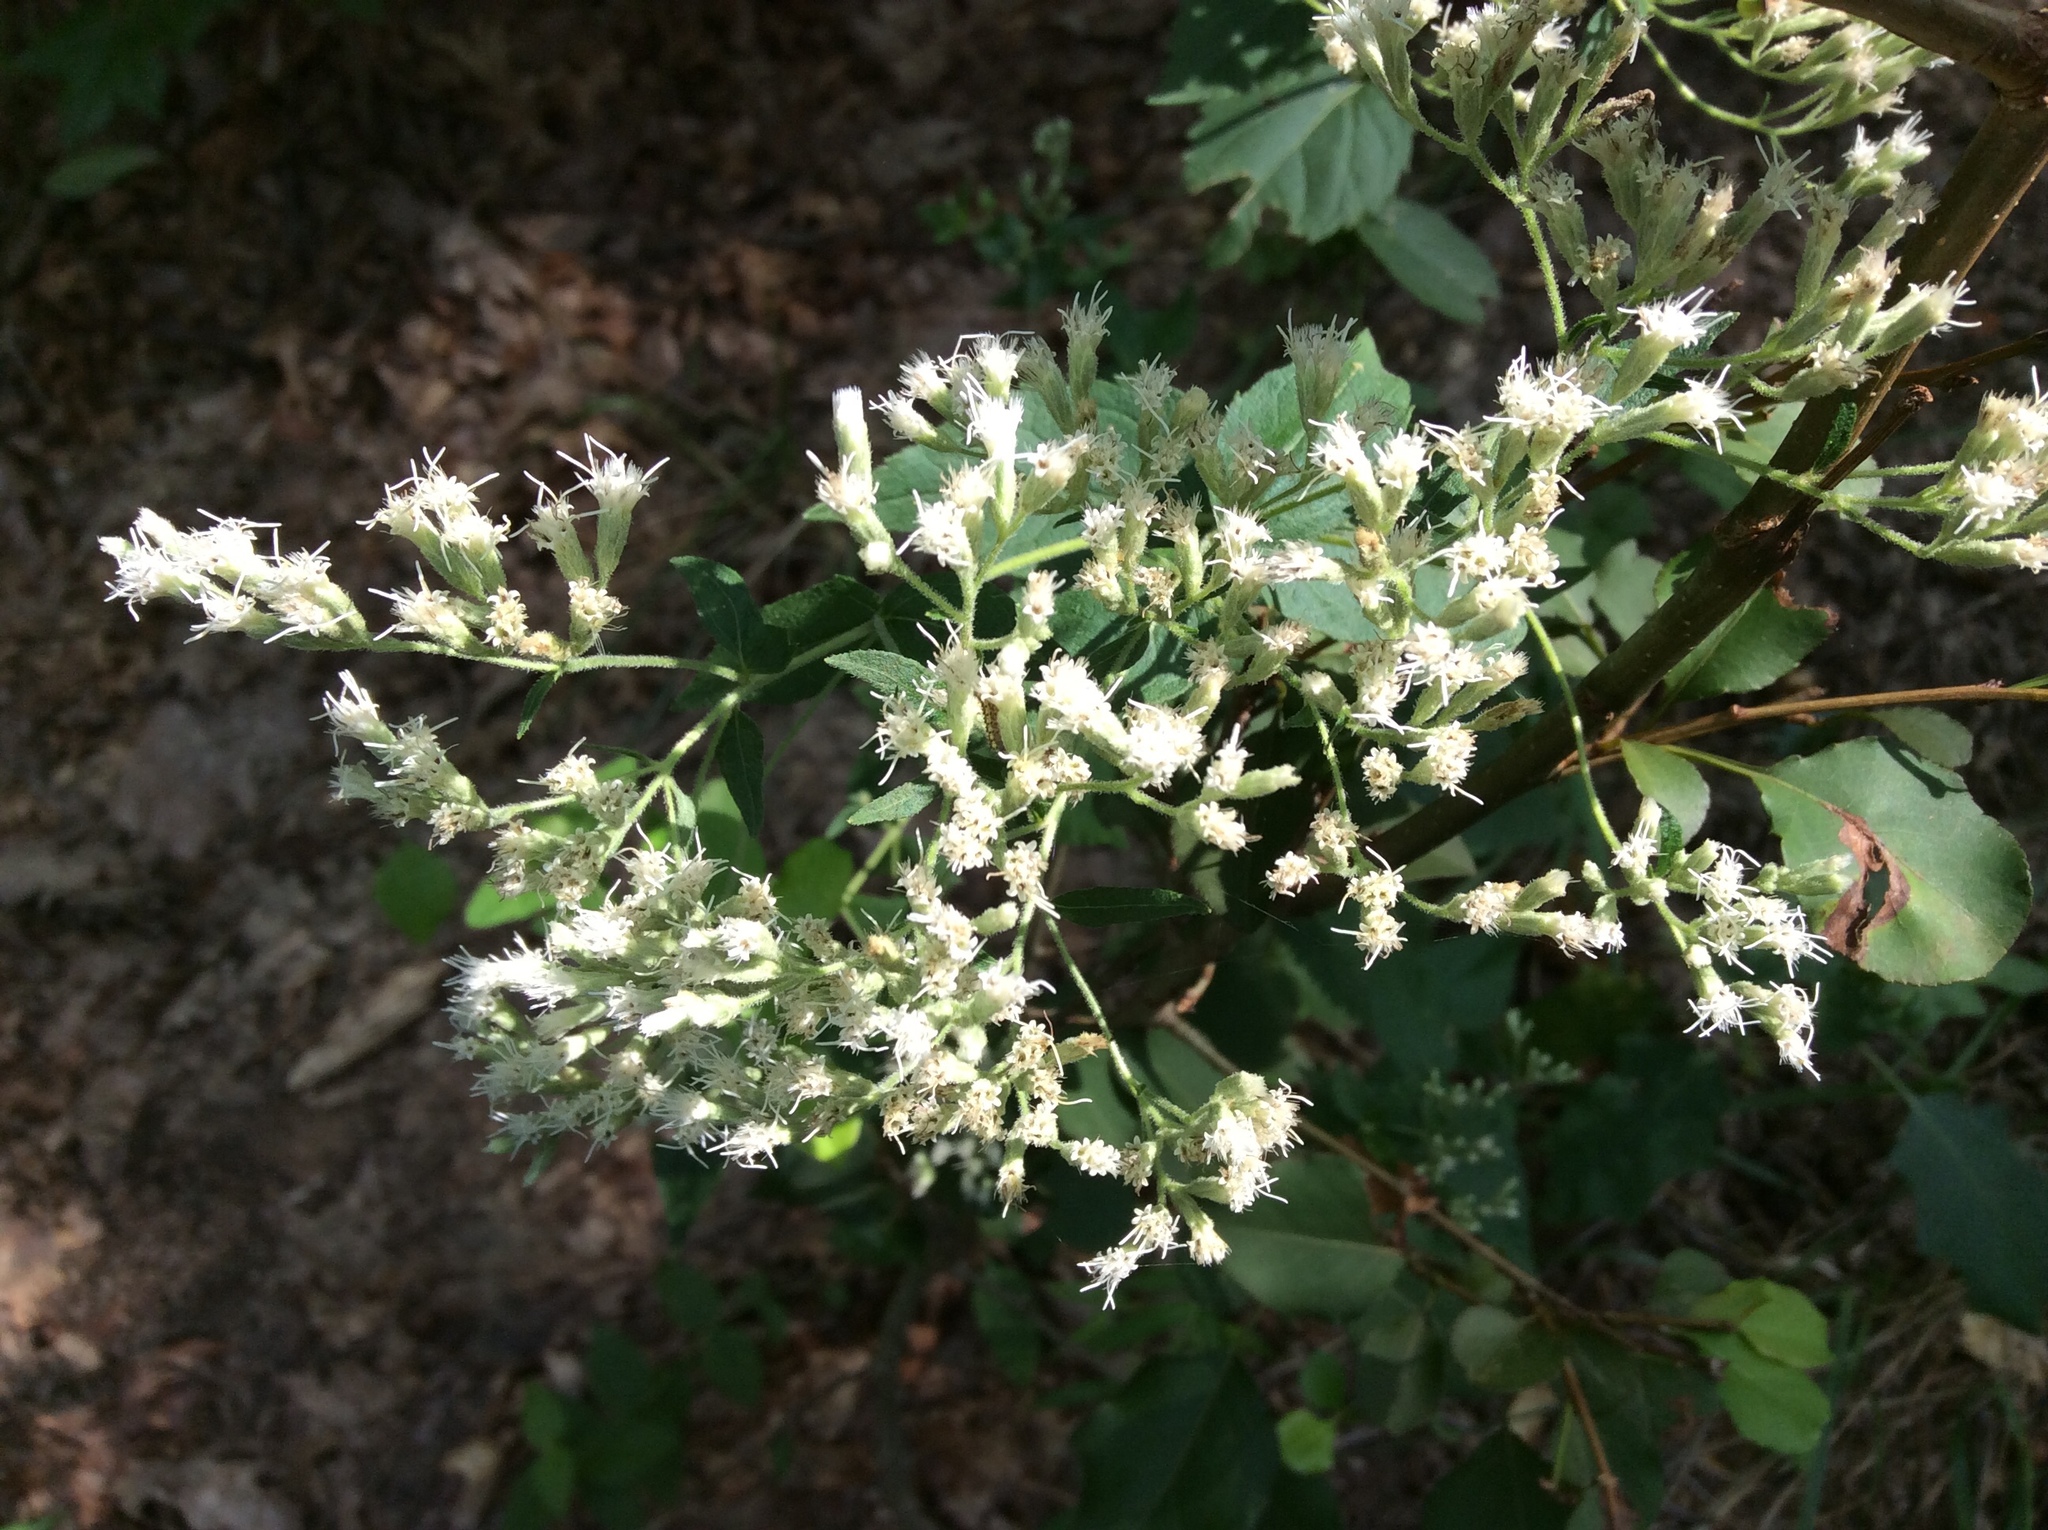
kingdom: Plantae
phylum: Tracheophyta
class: Magnoliopsida
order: Asterales
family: Asteraceae
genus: Eupatorium
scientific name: Eupatorium godfreyanum
